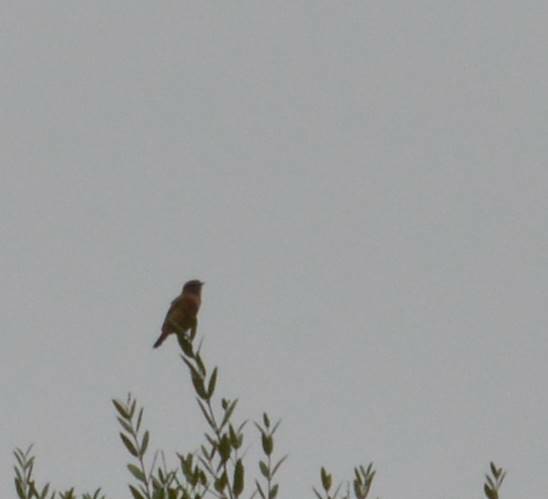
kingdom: Animalia
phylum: Chordata
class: Aves
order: Passeriformes
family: Muscicapidae
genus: Saxicola
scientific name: Saxicola rubicola
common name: European stonechat
